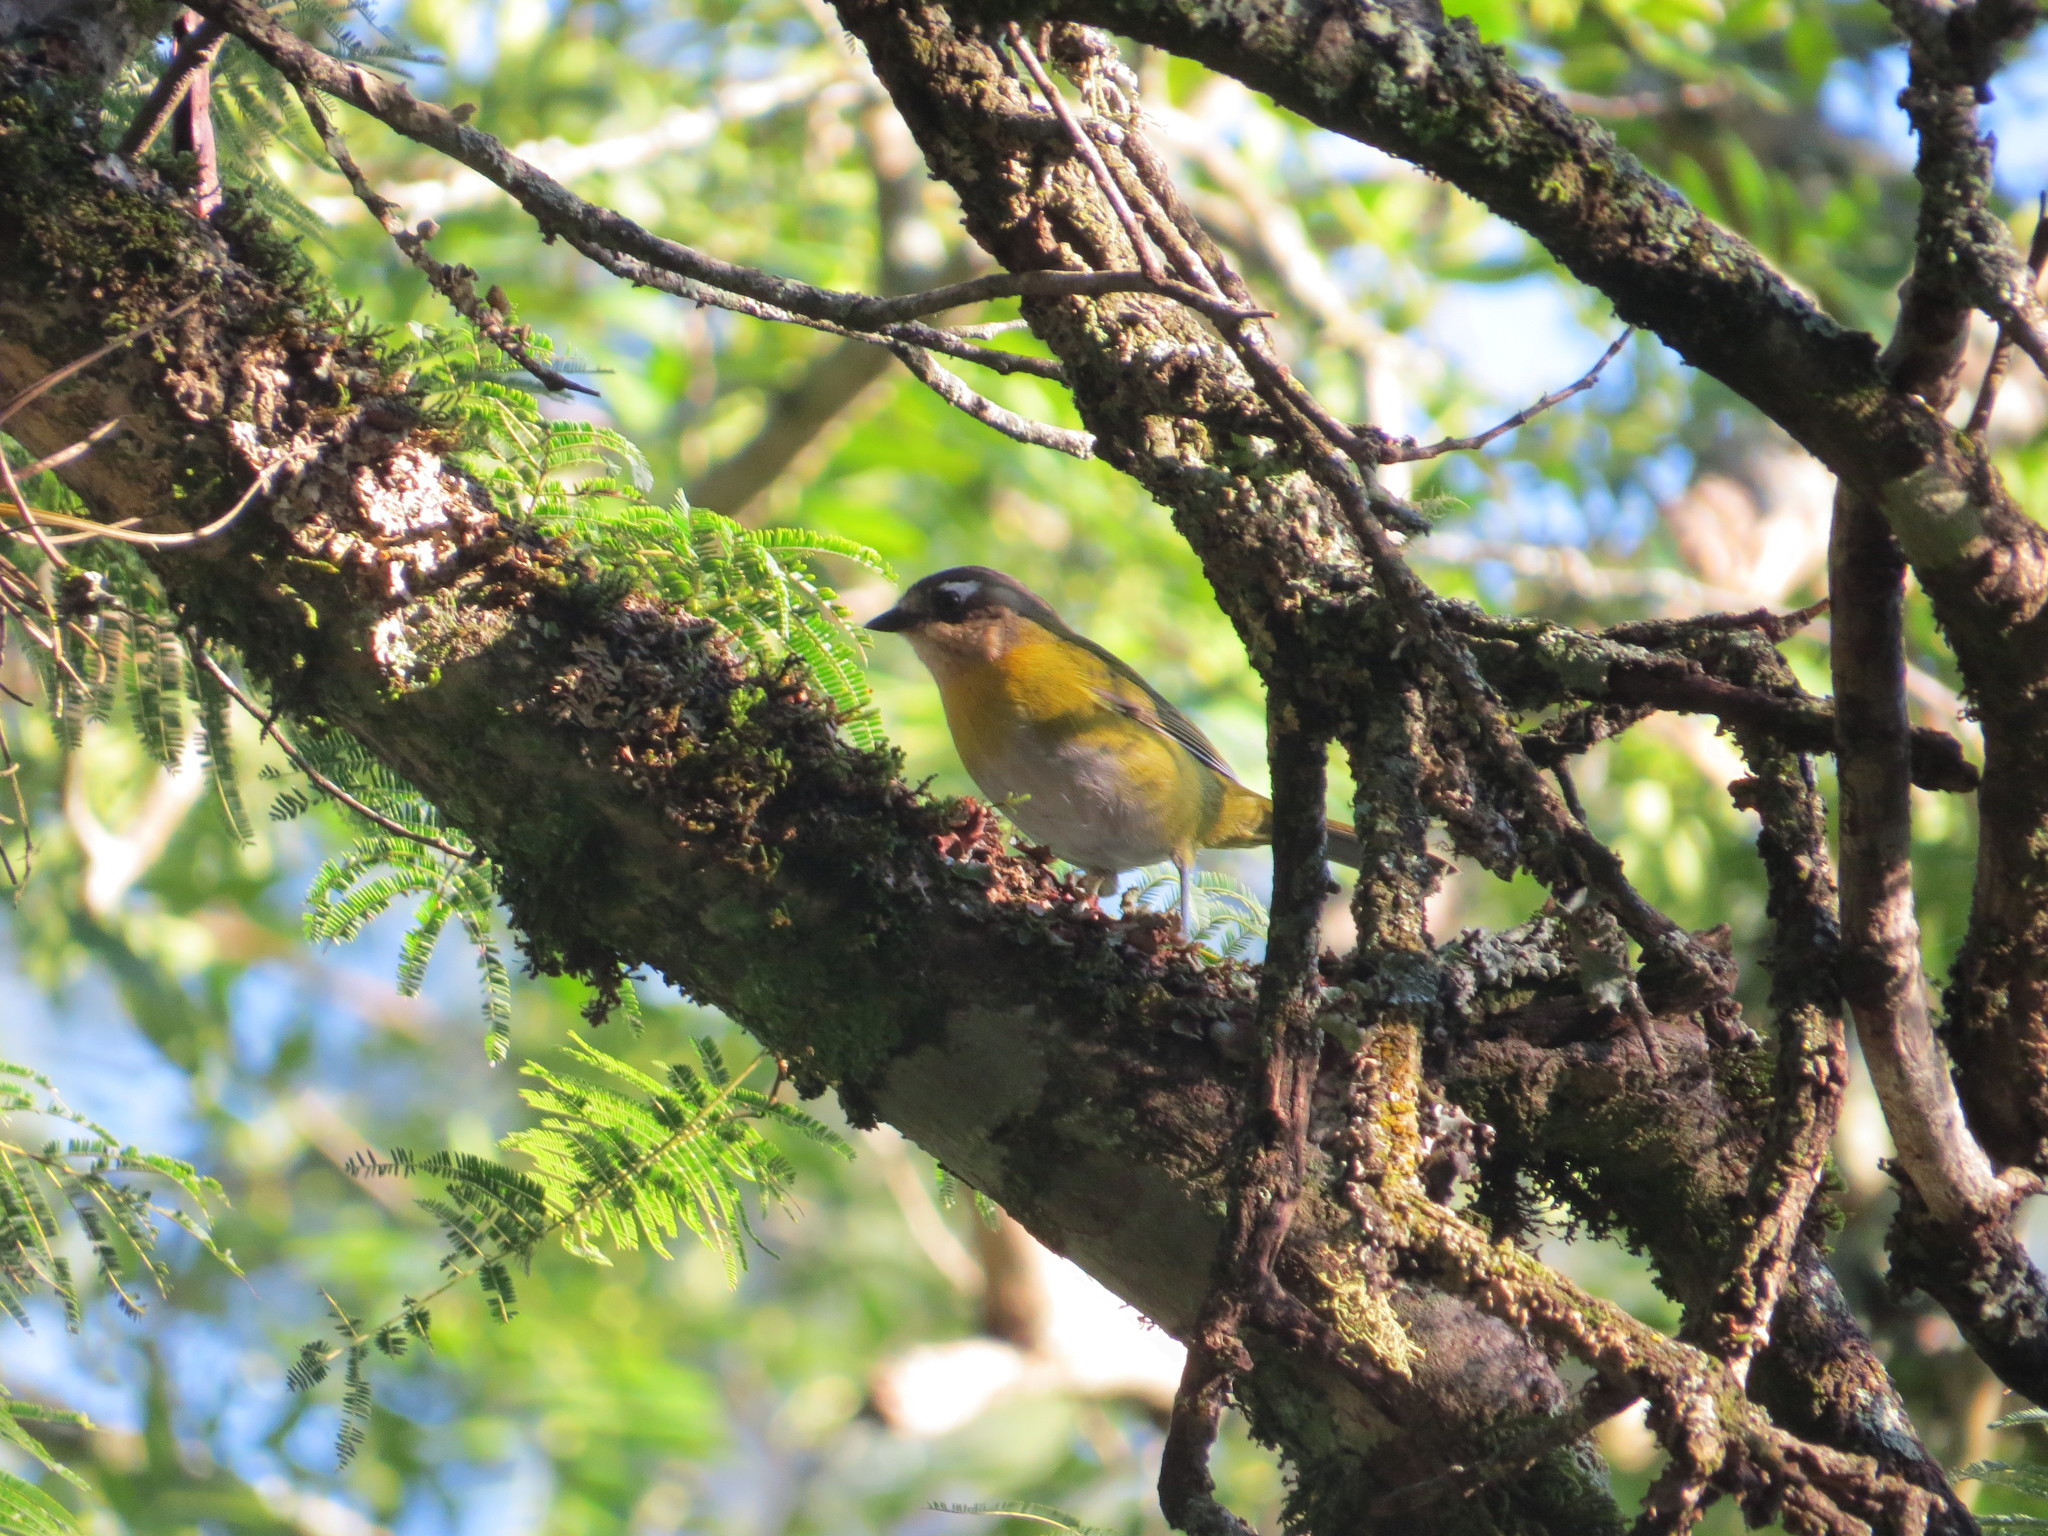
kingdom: Animalia
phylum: Chordata
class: Aves
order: Passeriformes
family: Passerellidae
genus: Chlorospingus
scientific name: Chlorospingus flavopectus
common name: Common chlorospingus
